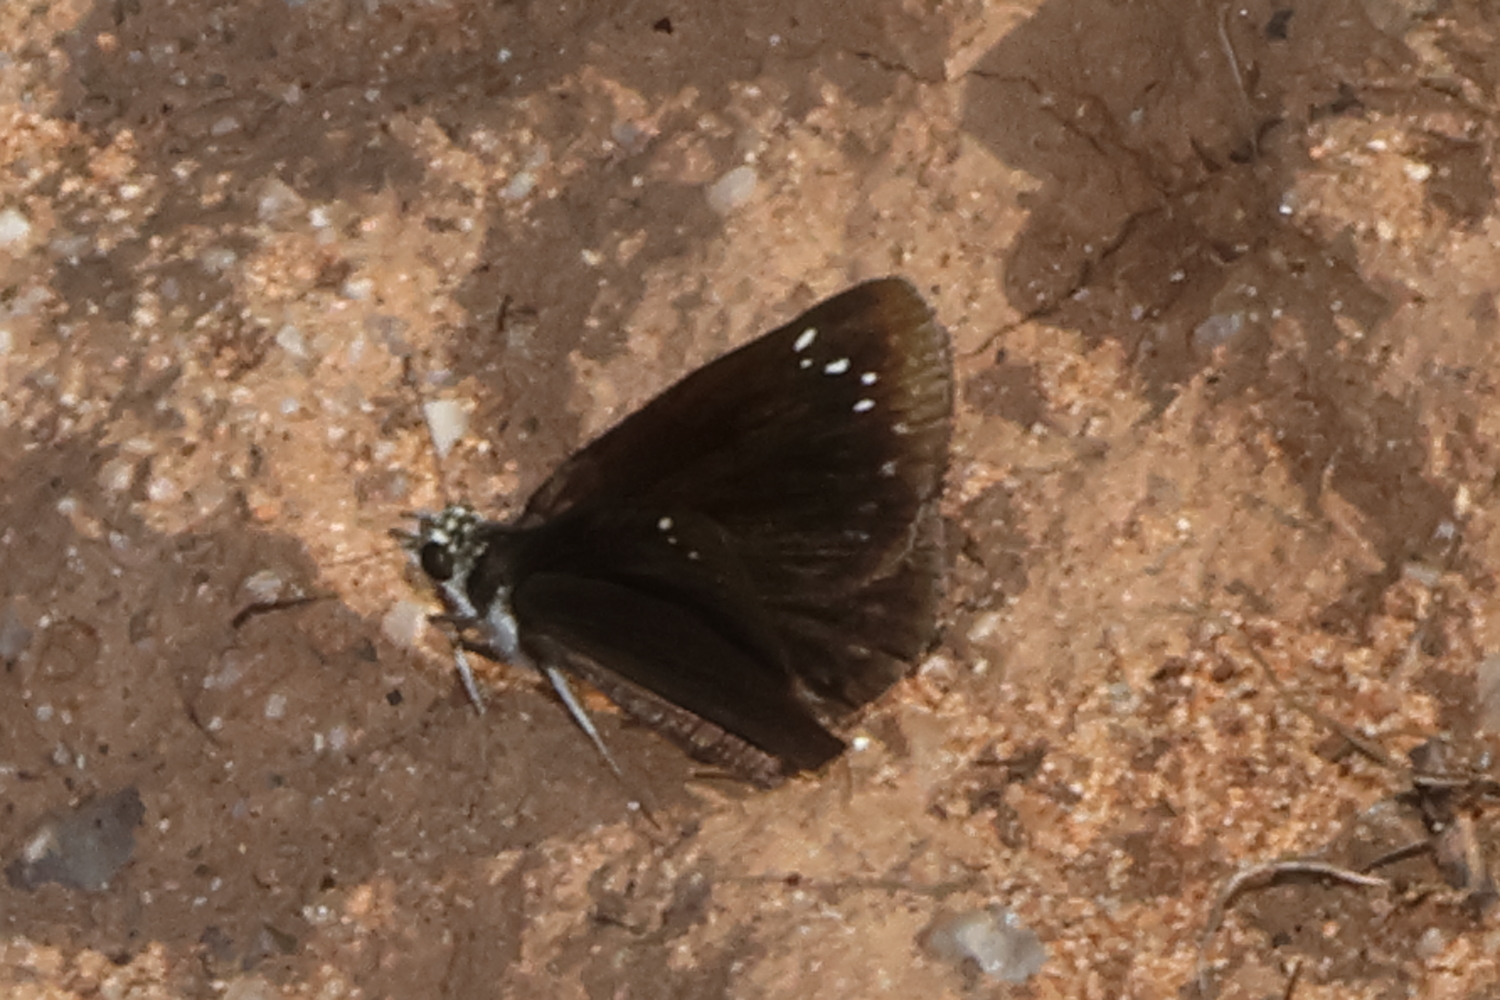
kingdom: Animalia
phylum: Arthropoda
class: Insecta
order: Lepidoptera
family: Hesperiidae
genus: Pholisora
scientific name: Pholisora catullus
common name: Common sootywing
